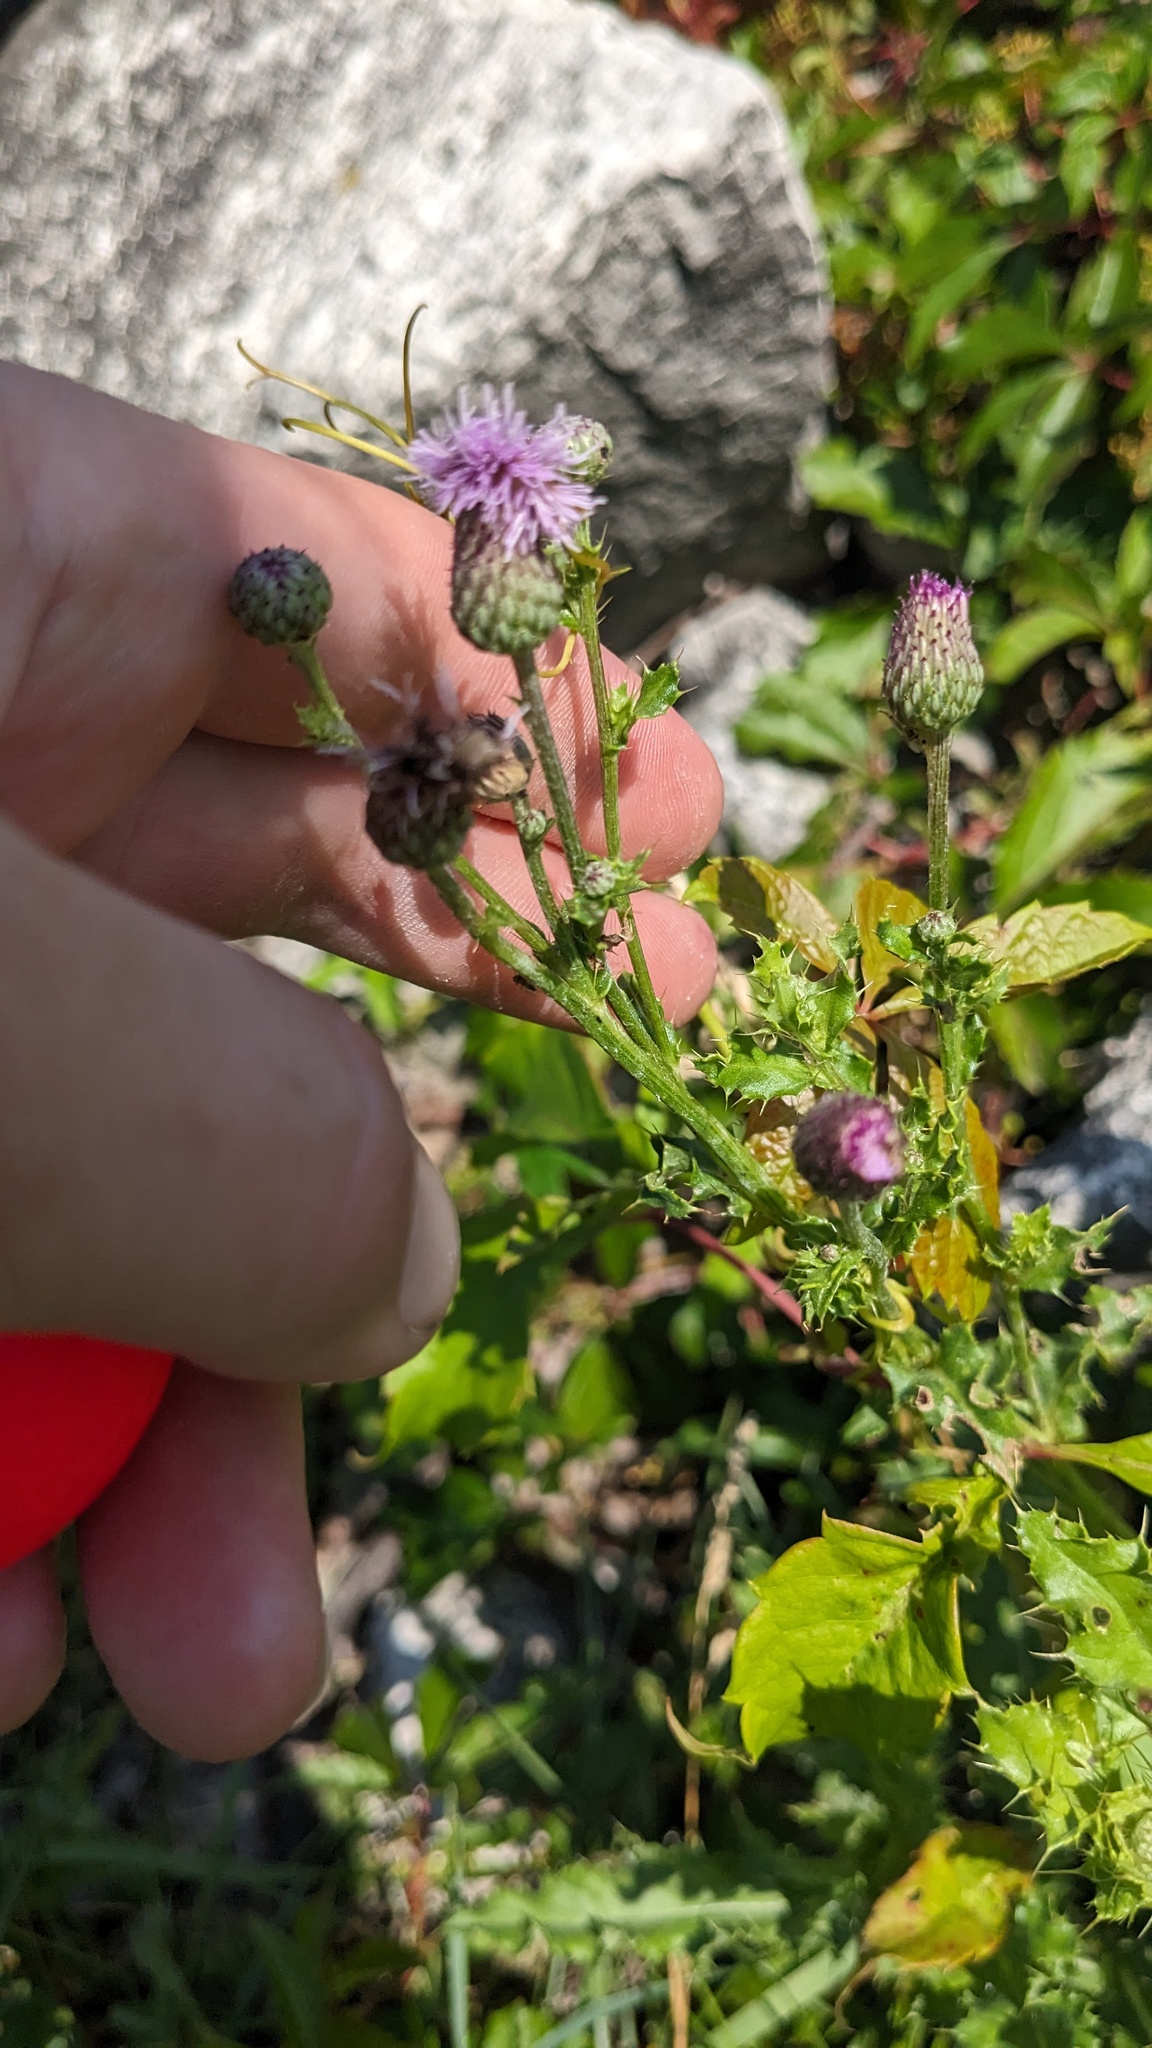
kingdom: Plantae
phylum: Tracheophyta
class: Magnoliopsida
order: Asterales
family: Asteraceae
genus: Cirsium
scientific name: Cirsium arvense
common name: Creeping thistle
